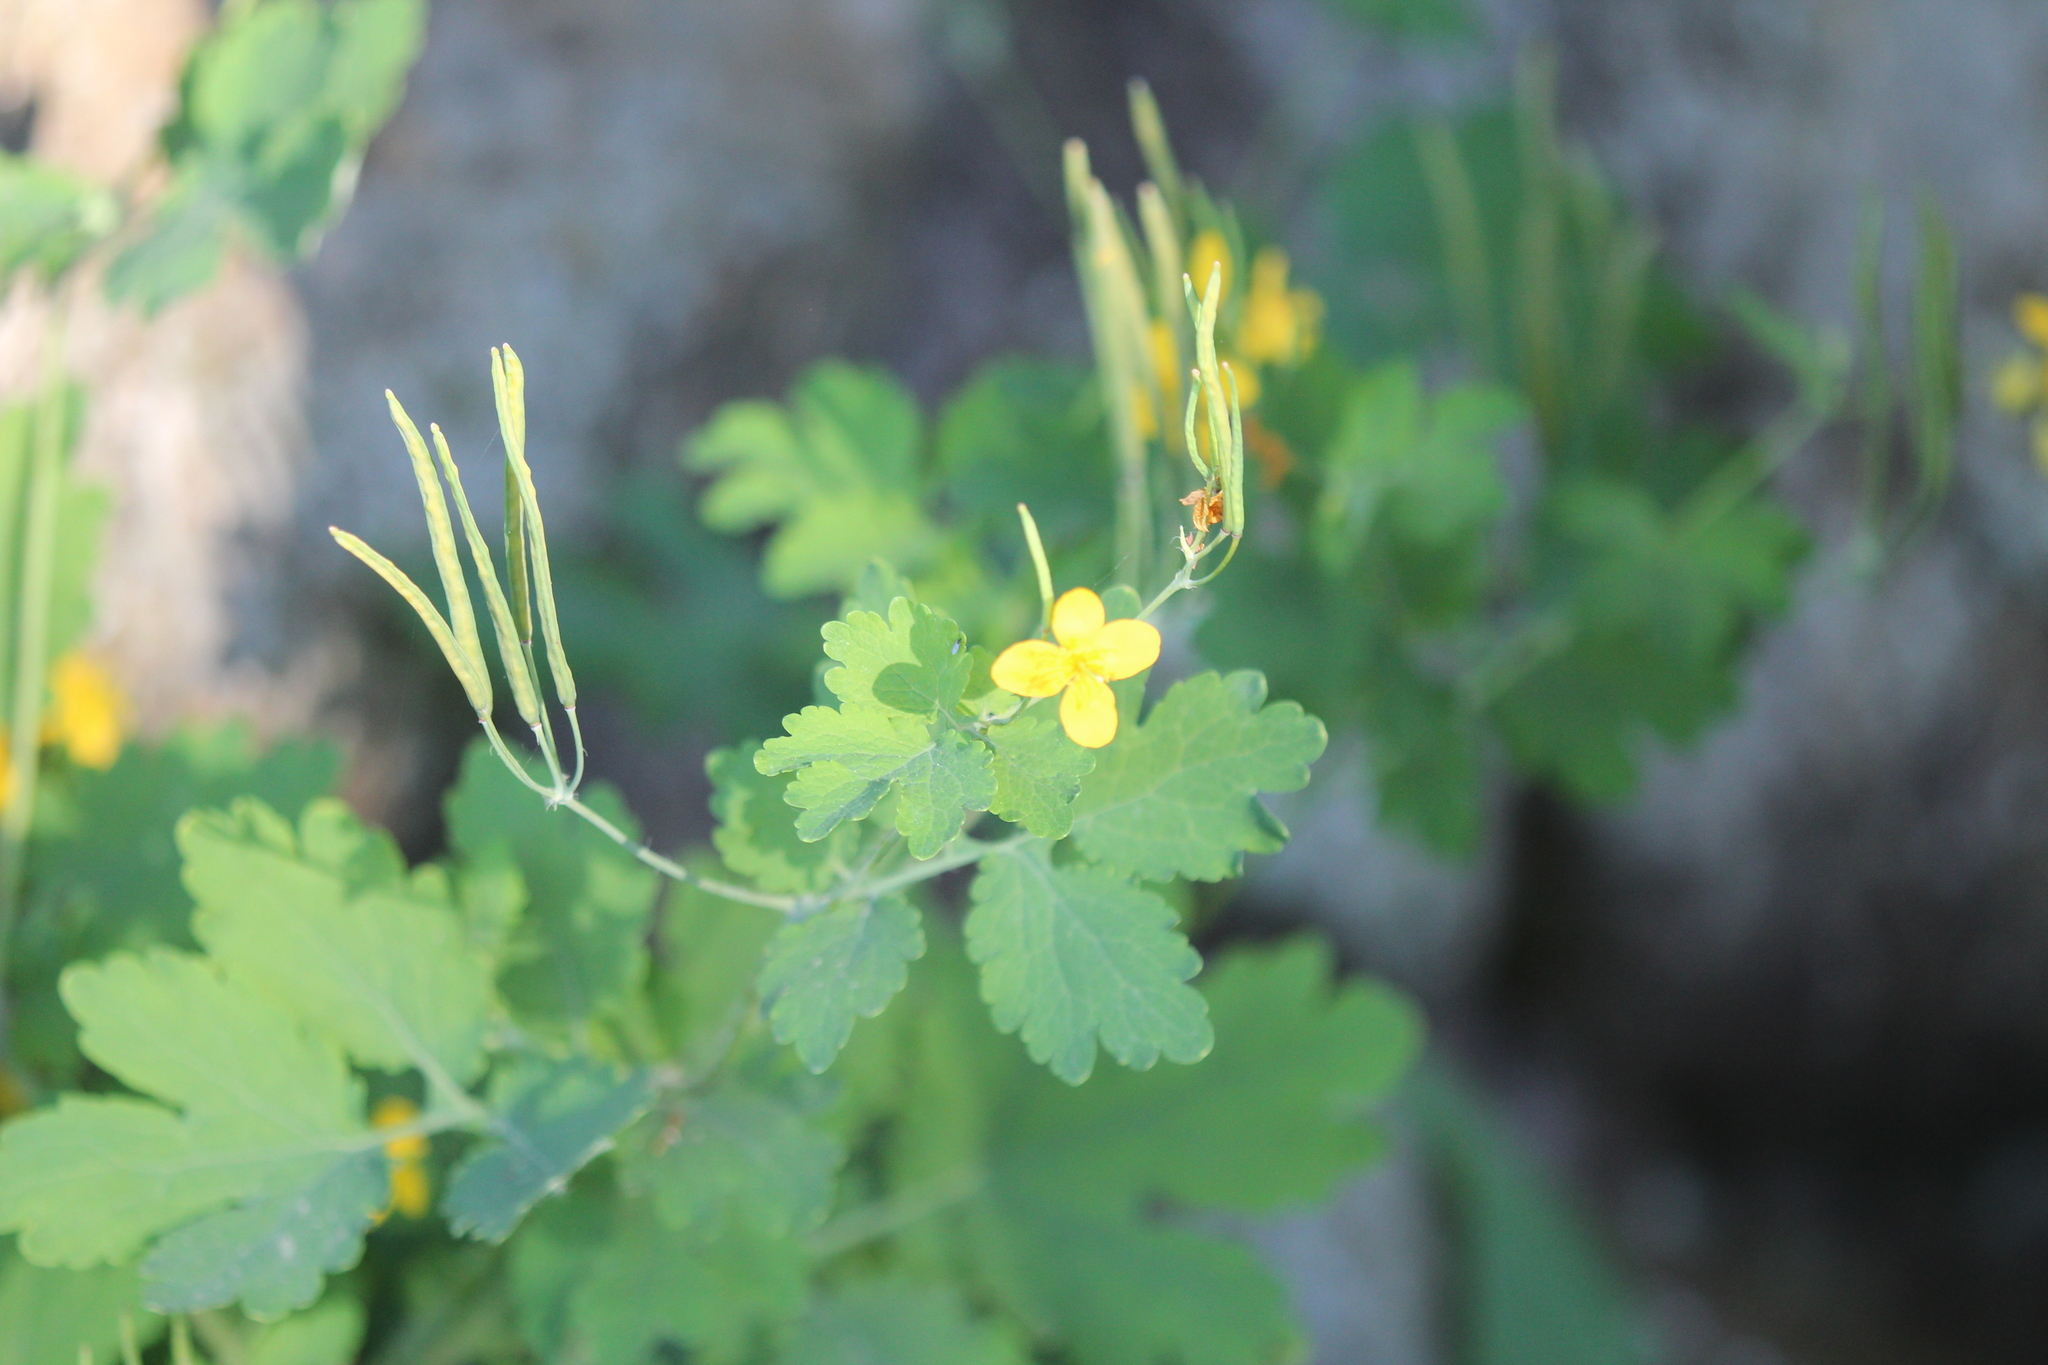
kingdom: Plantae
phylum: Tracheophyta
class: Magnoliopsida
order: Ranunculales
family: Papaveraceae
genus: Chelidonium
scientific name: Chelidonium majus
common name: Greater celandine
